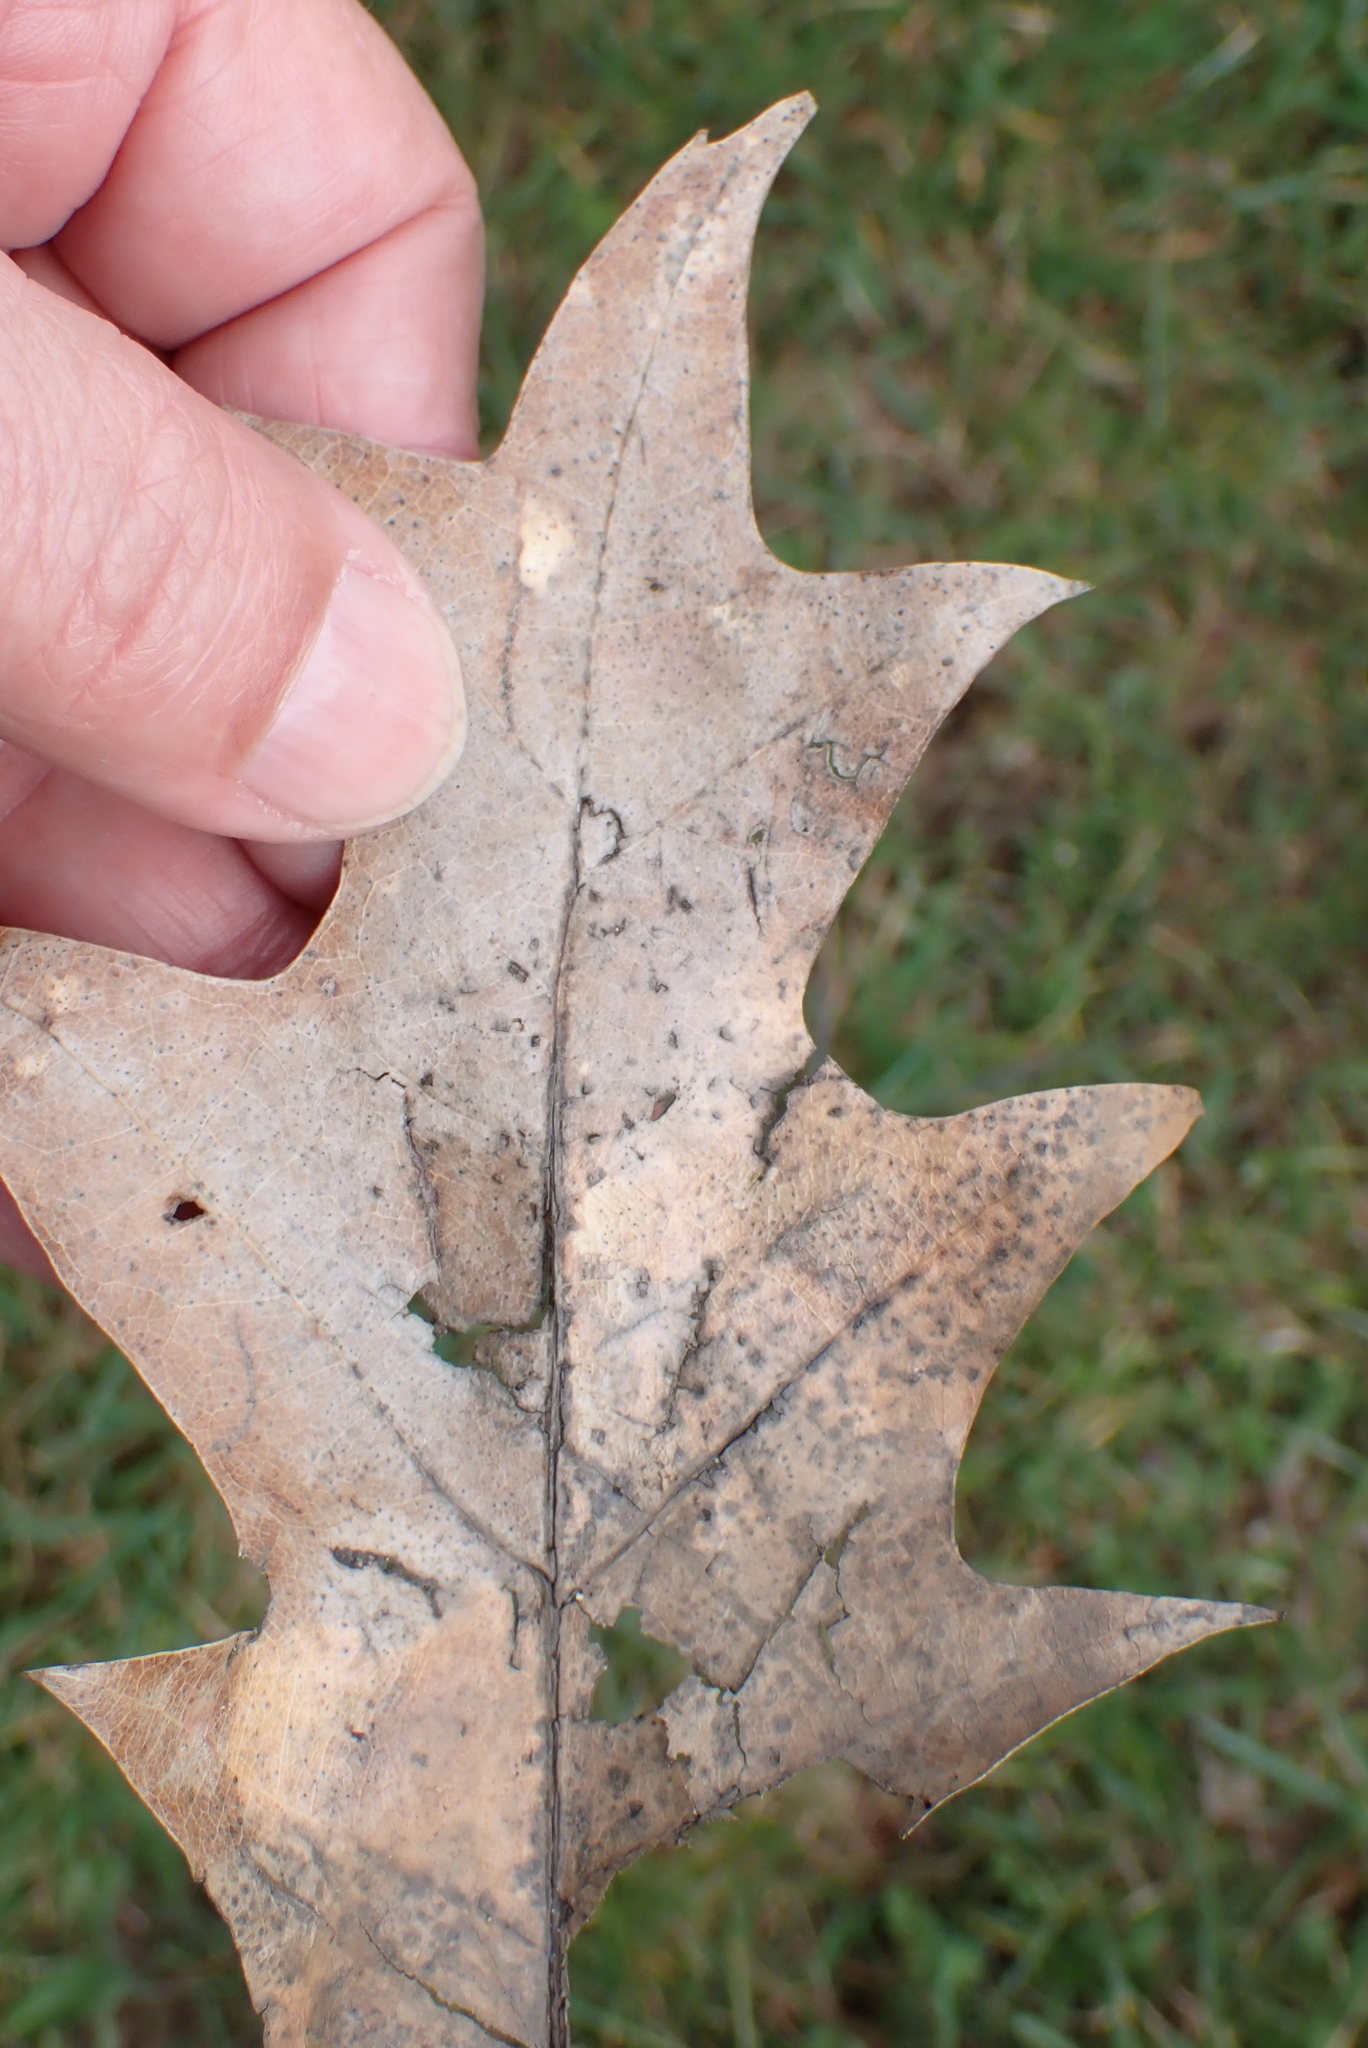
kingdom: Plantae
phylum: Tracheophyta
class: Magnoliopsida
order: Fagales
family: Fagaceae
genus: Quercus
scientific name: Quercus rubra
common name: Red oak
